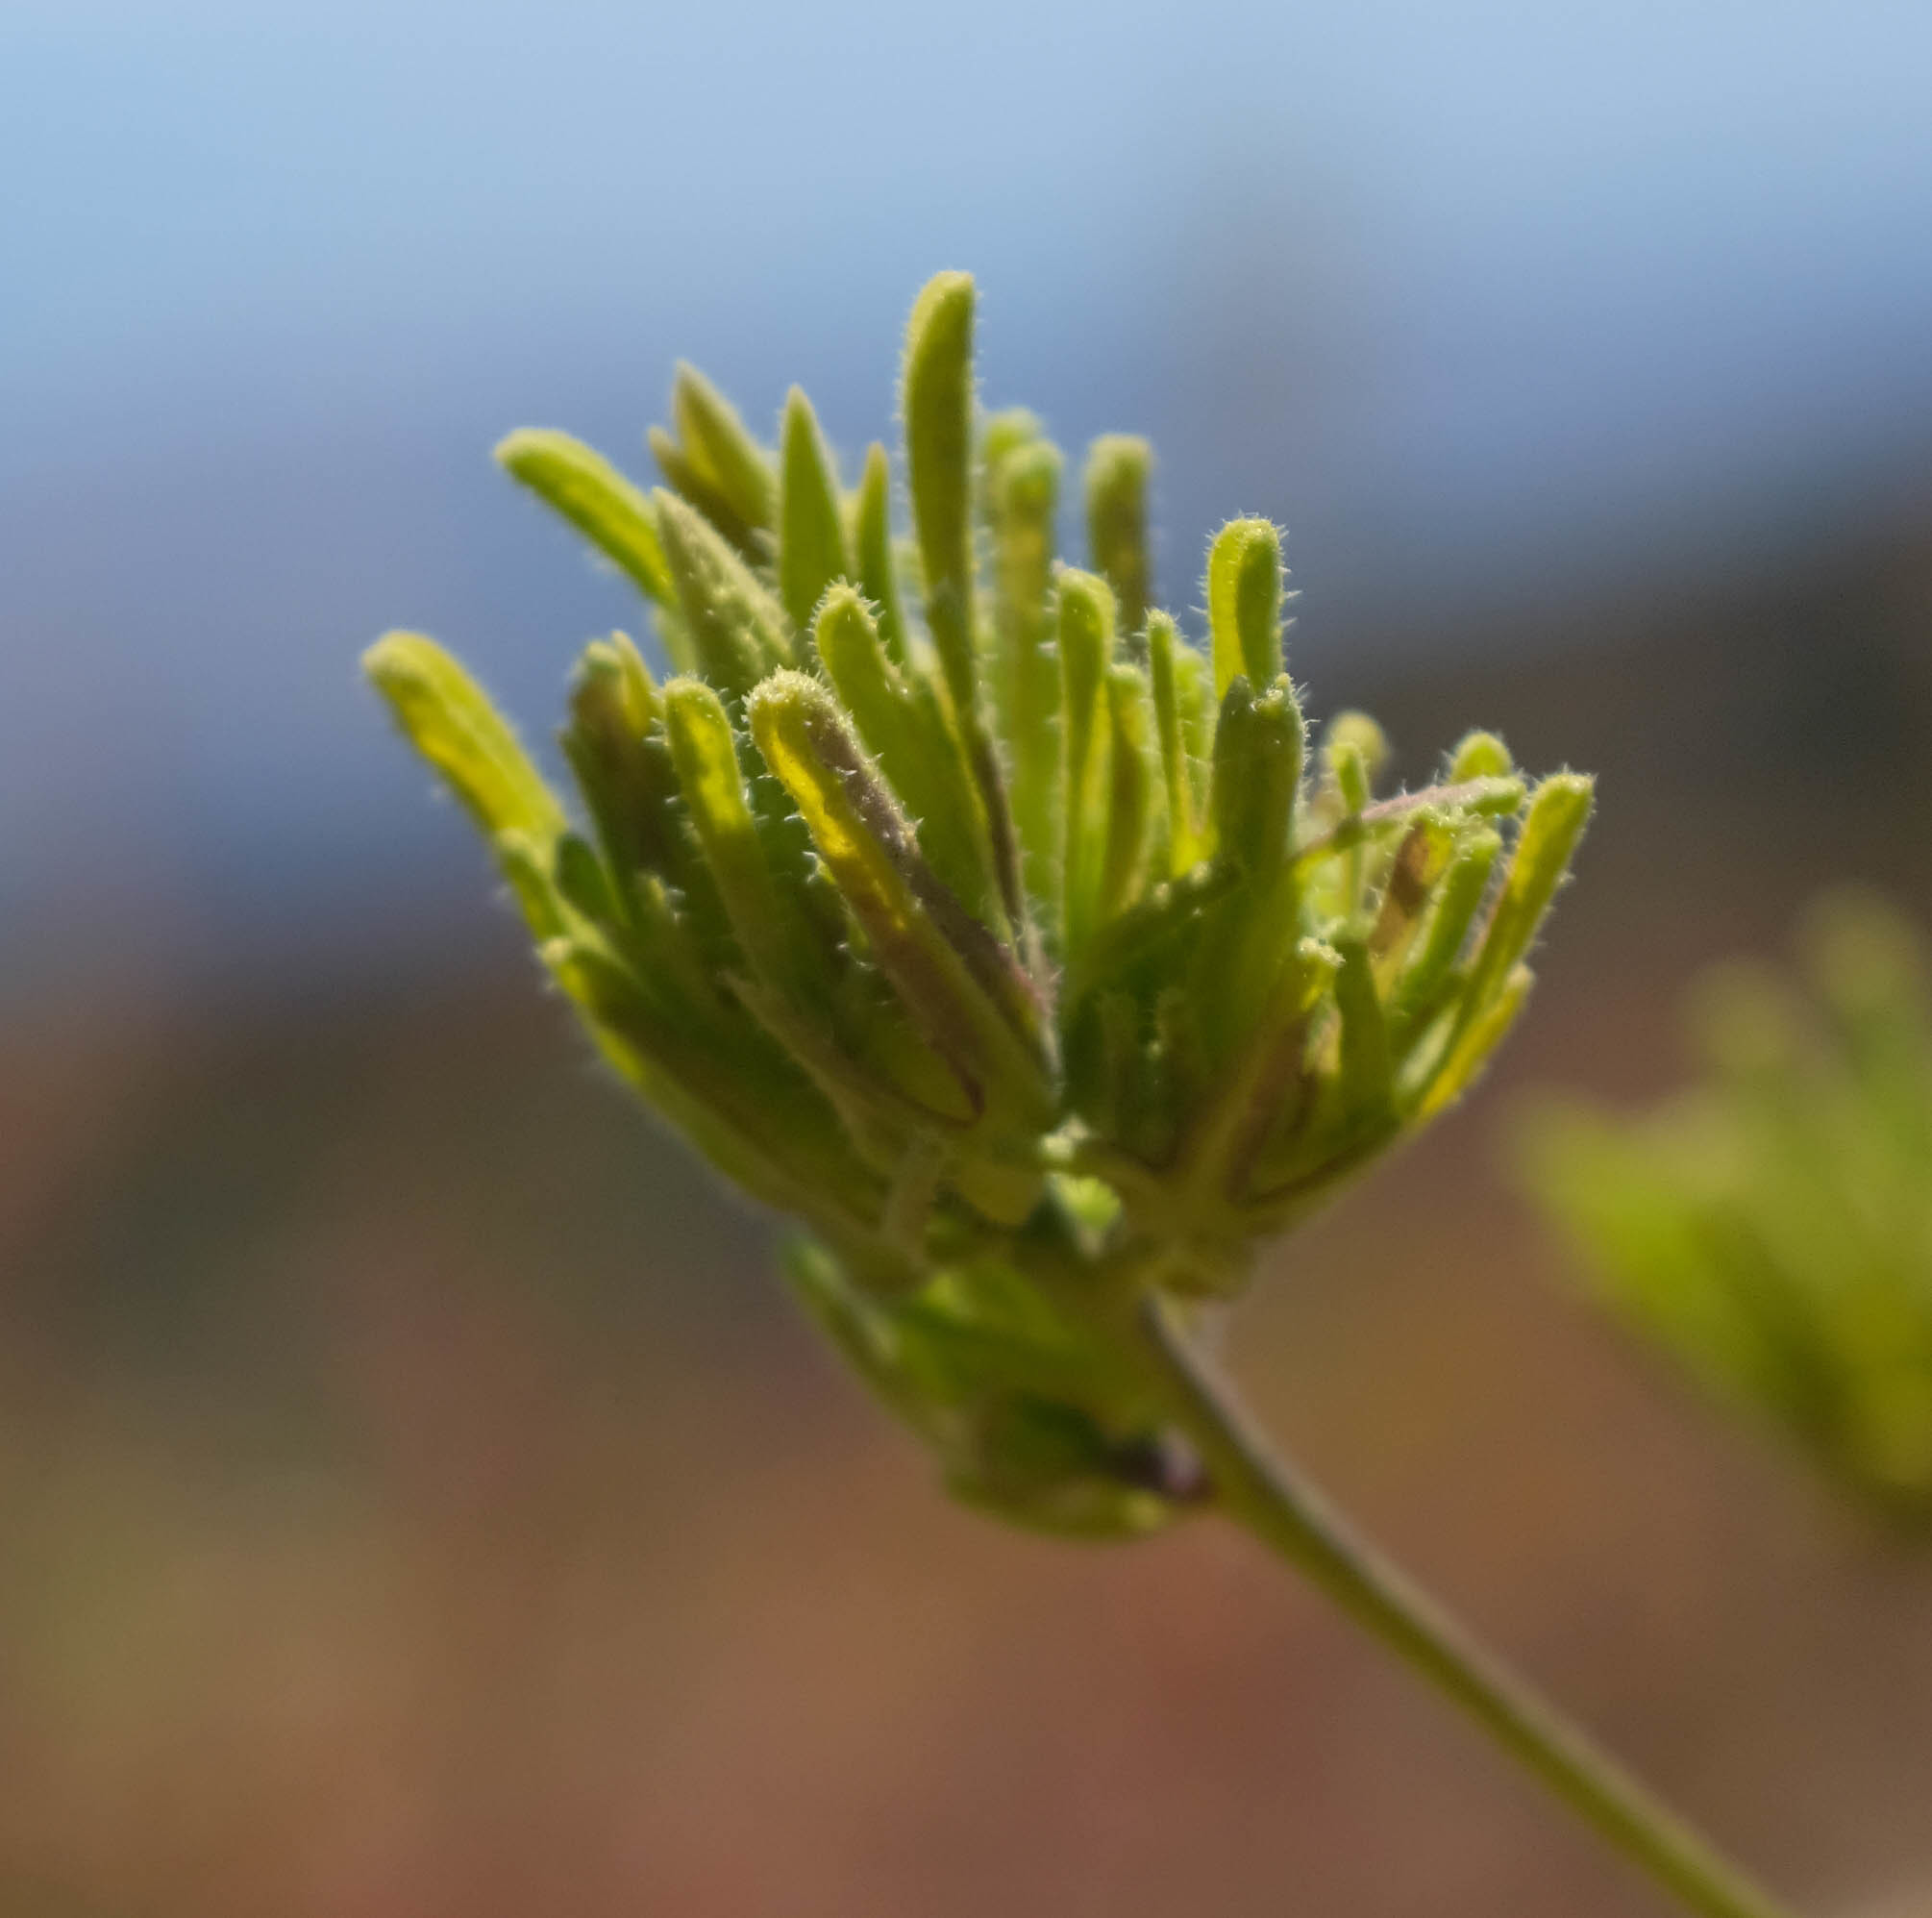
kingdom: Plantae
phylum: Tracheophyta
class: Magnoliopsida
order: Lamiales
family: Orobanchaceae
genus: Cordylanthus
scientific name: Cordylanthus rigidus
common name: Stiff-branch bird's-beak
